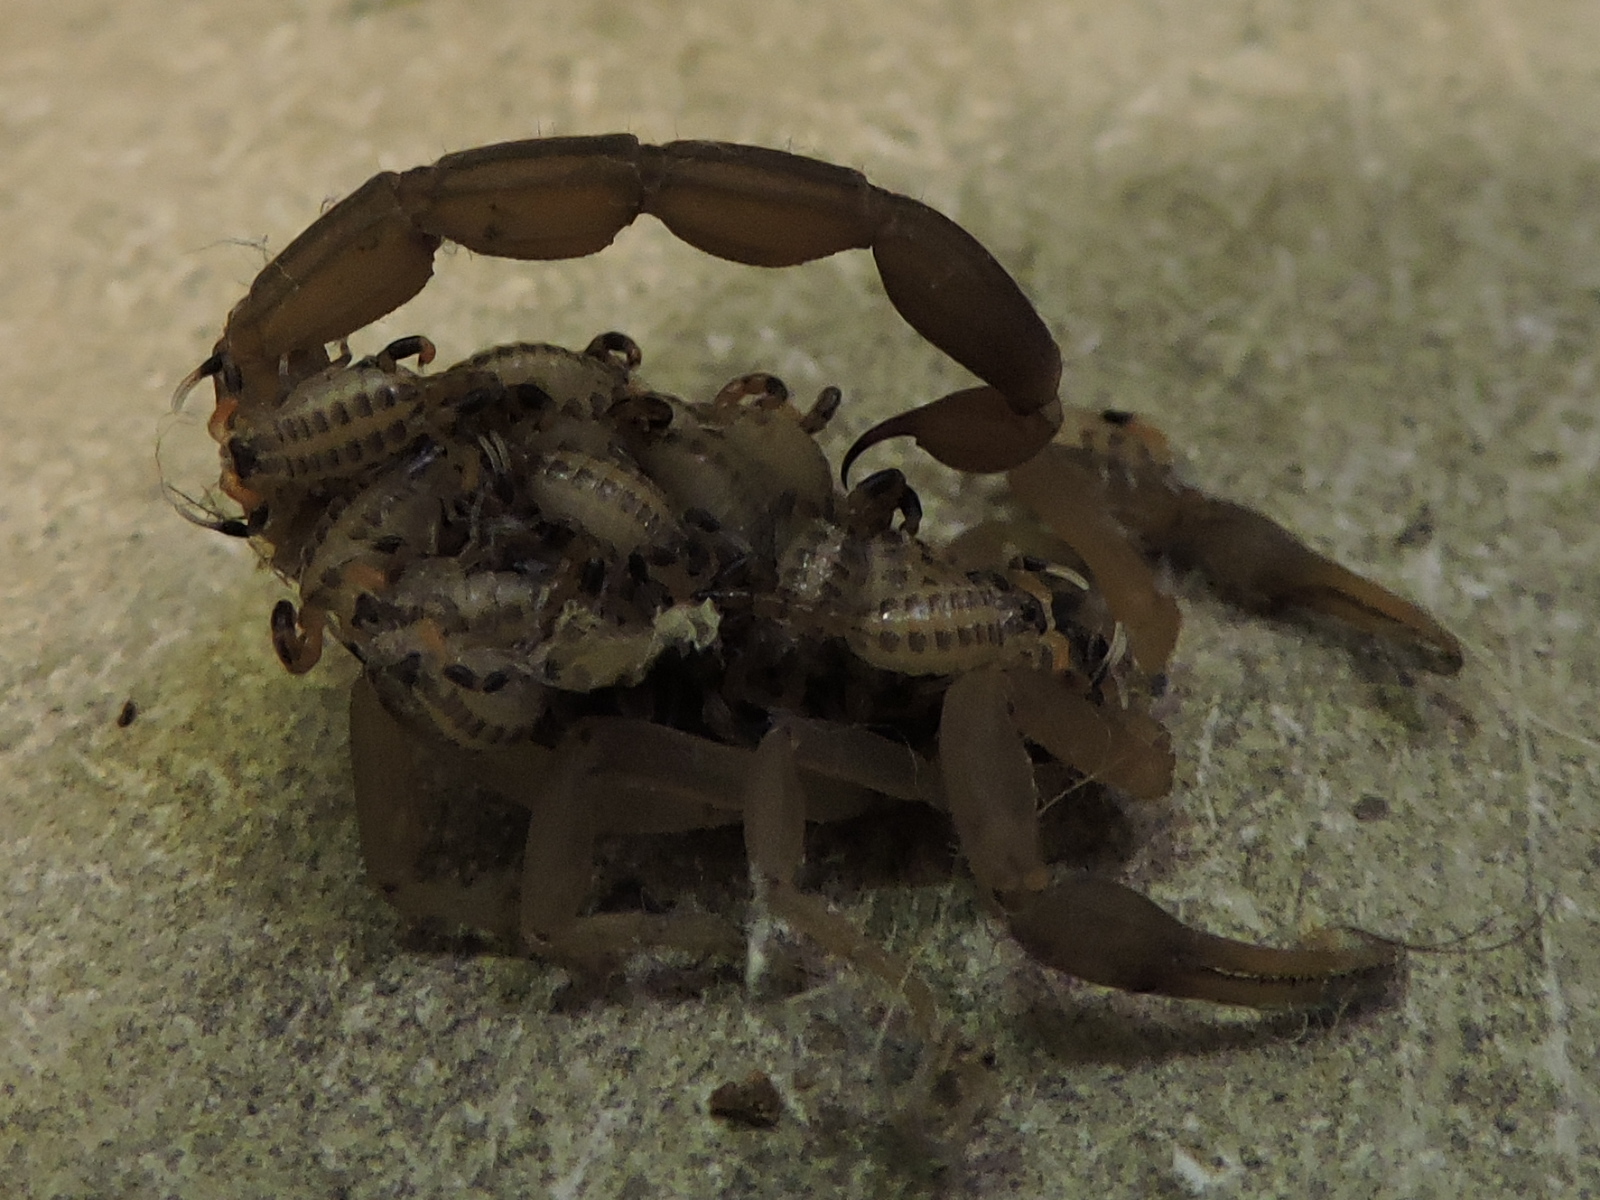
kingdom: Animalia
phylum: Arthropoda
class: Arachnida
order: Scorpiones
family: Buthidae
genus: Centruroides
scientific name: Centruroides vittatus
